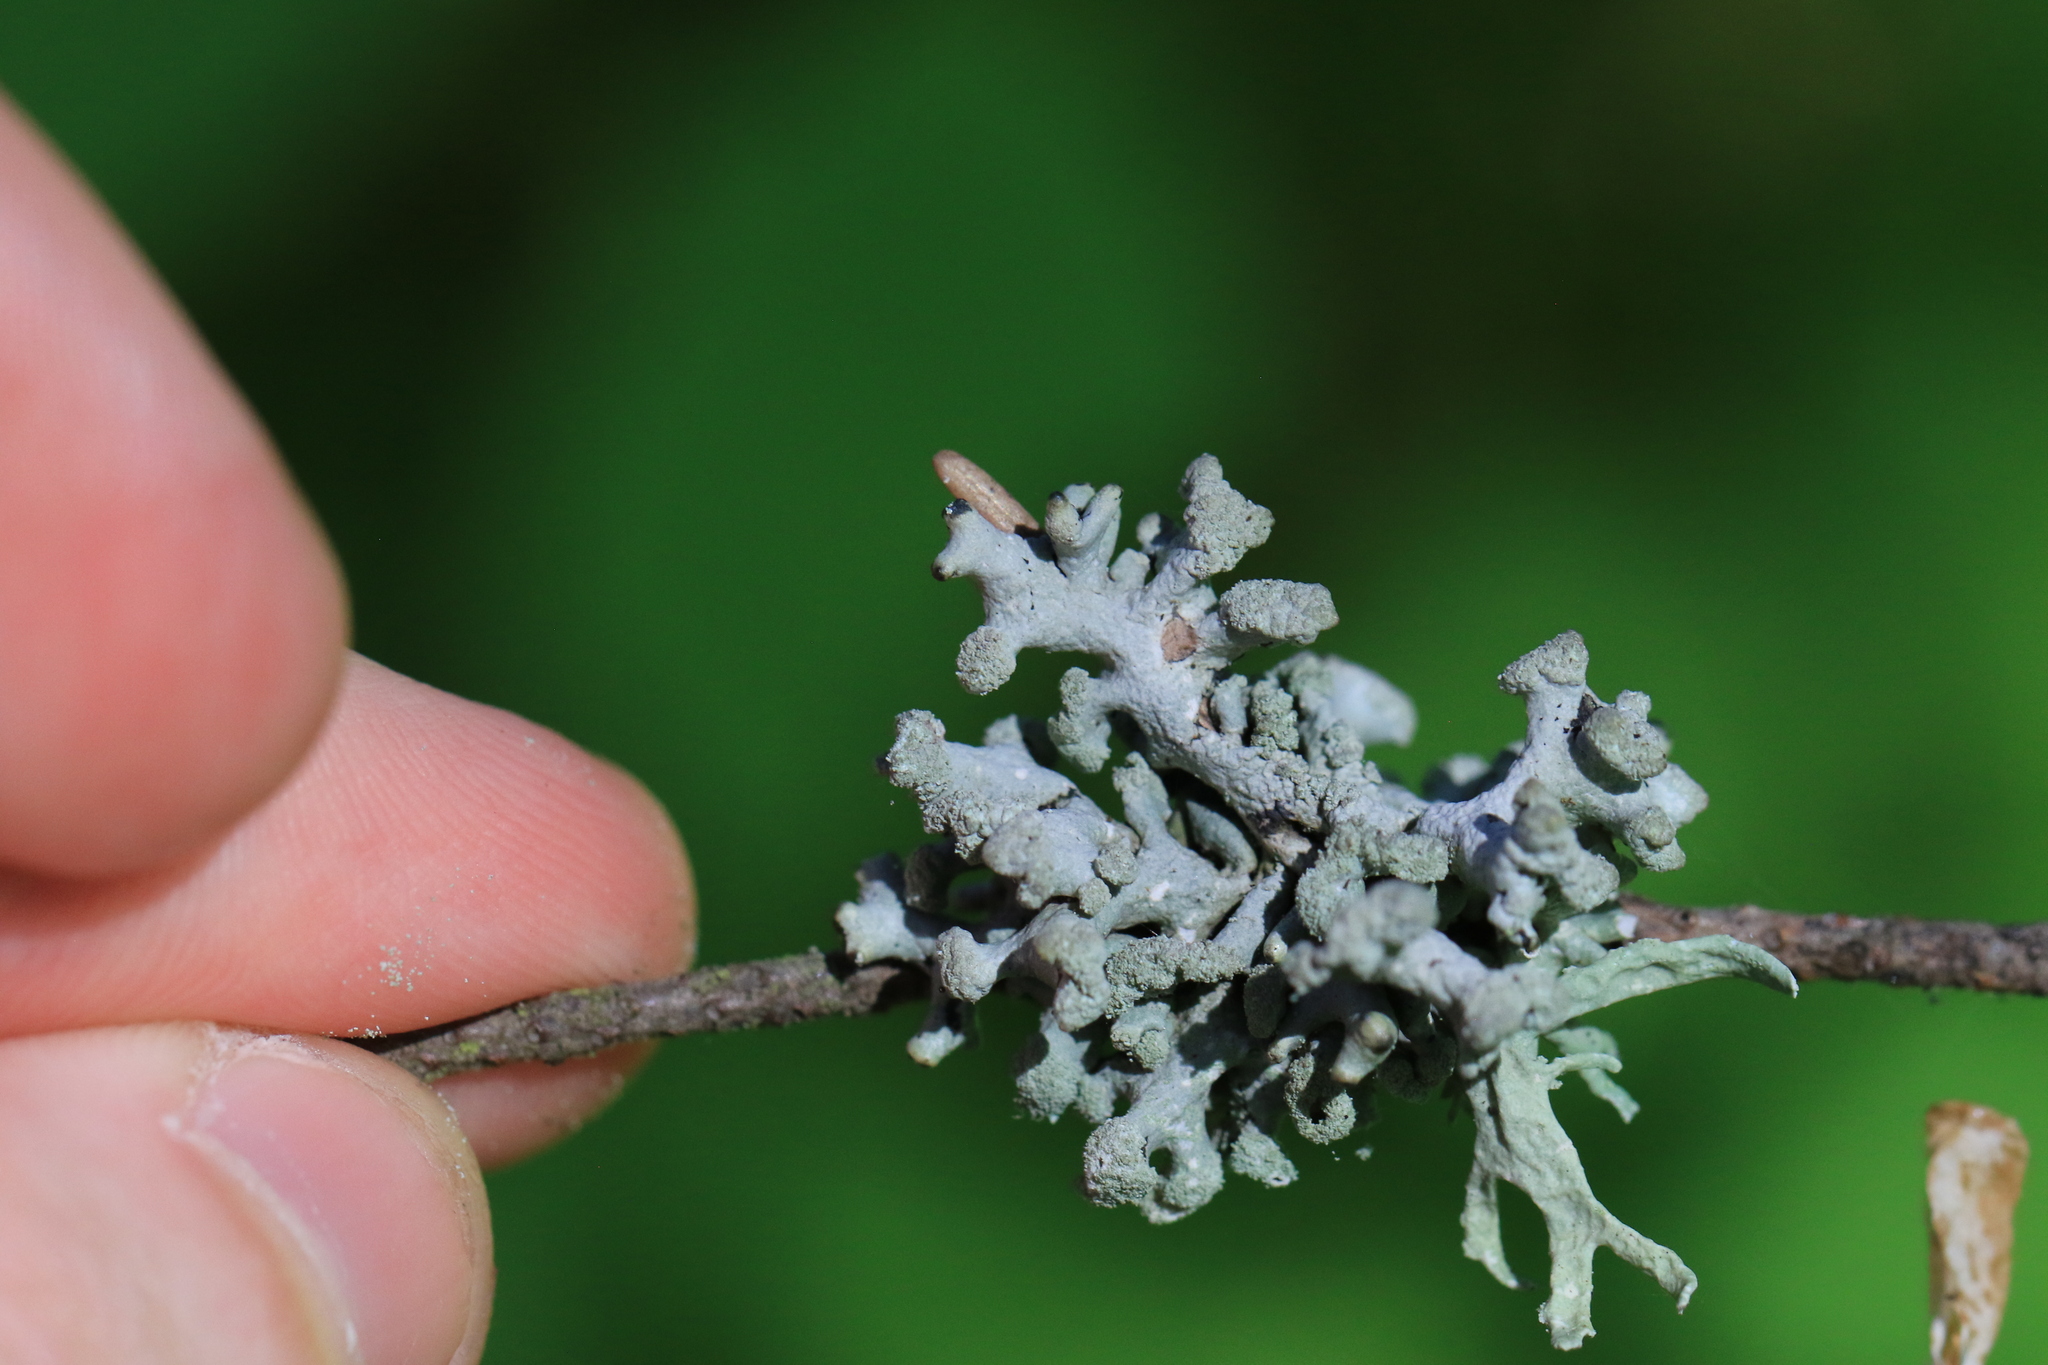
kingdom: Fungi
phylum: Ascomycota
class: Lecanoromycetes
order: Lecanorales
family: Parmeliaceae
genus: Hypogymnia
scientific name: Hypogymnia tubulosa
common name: Powder-headed tube lichen
